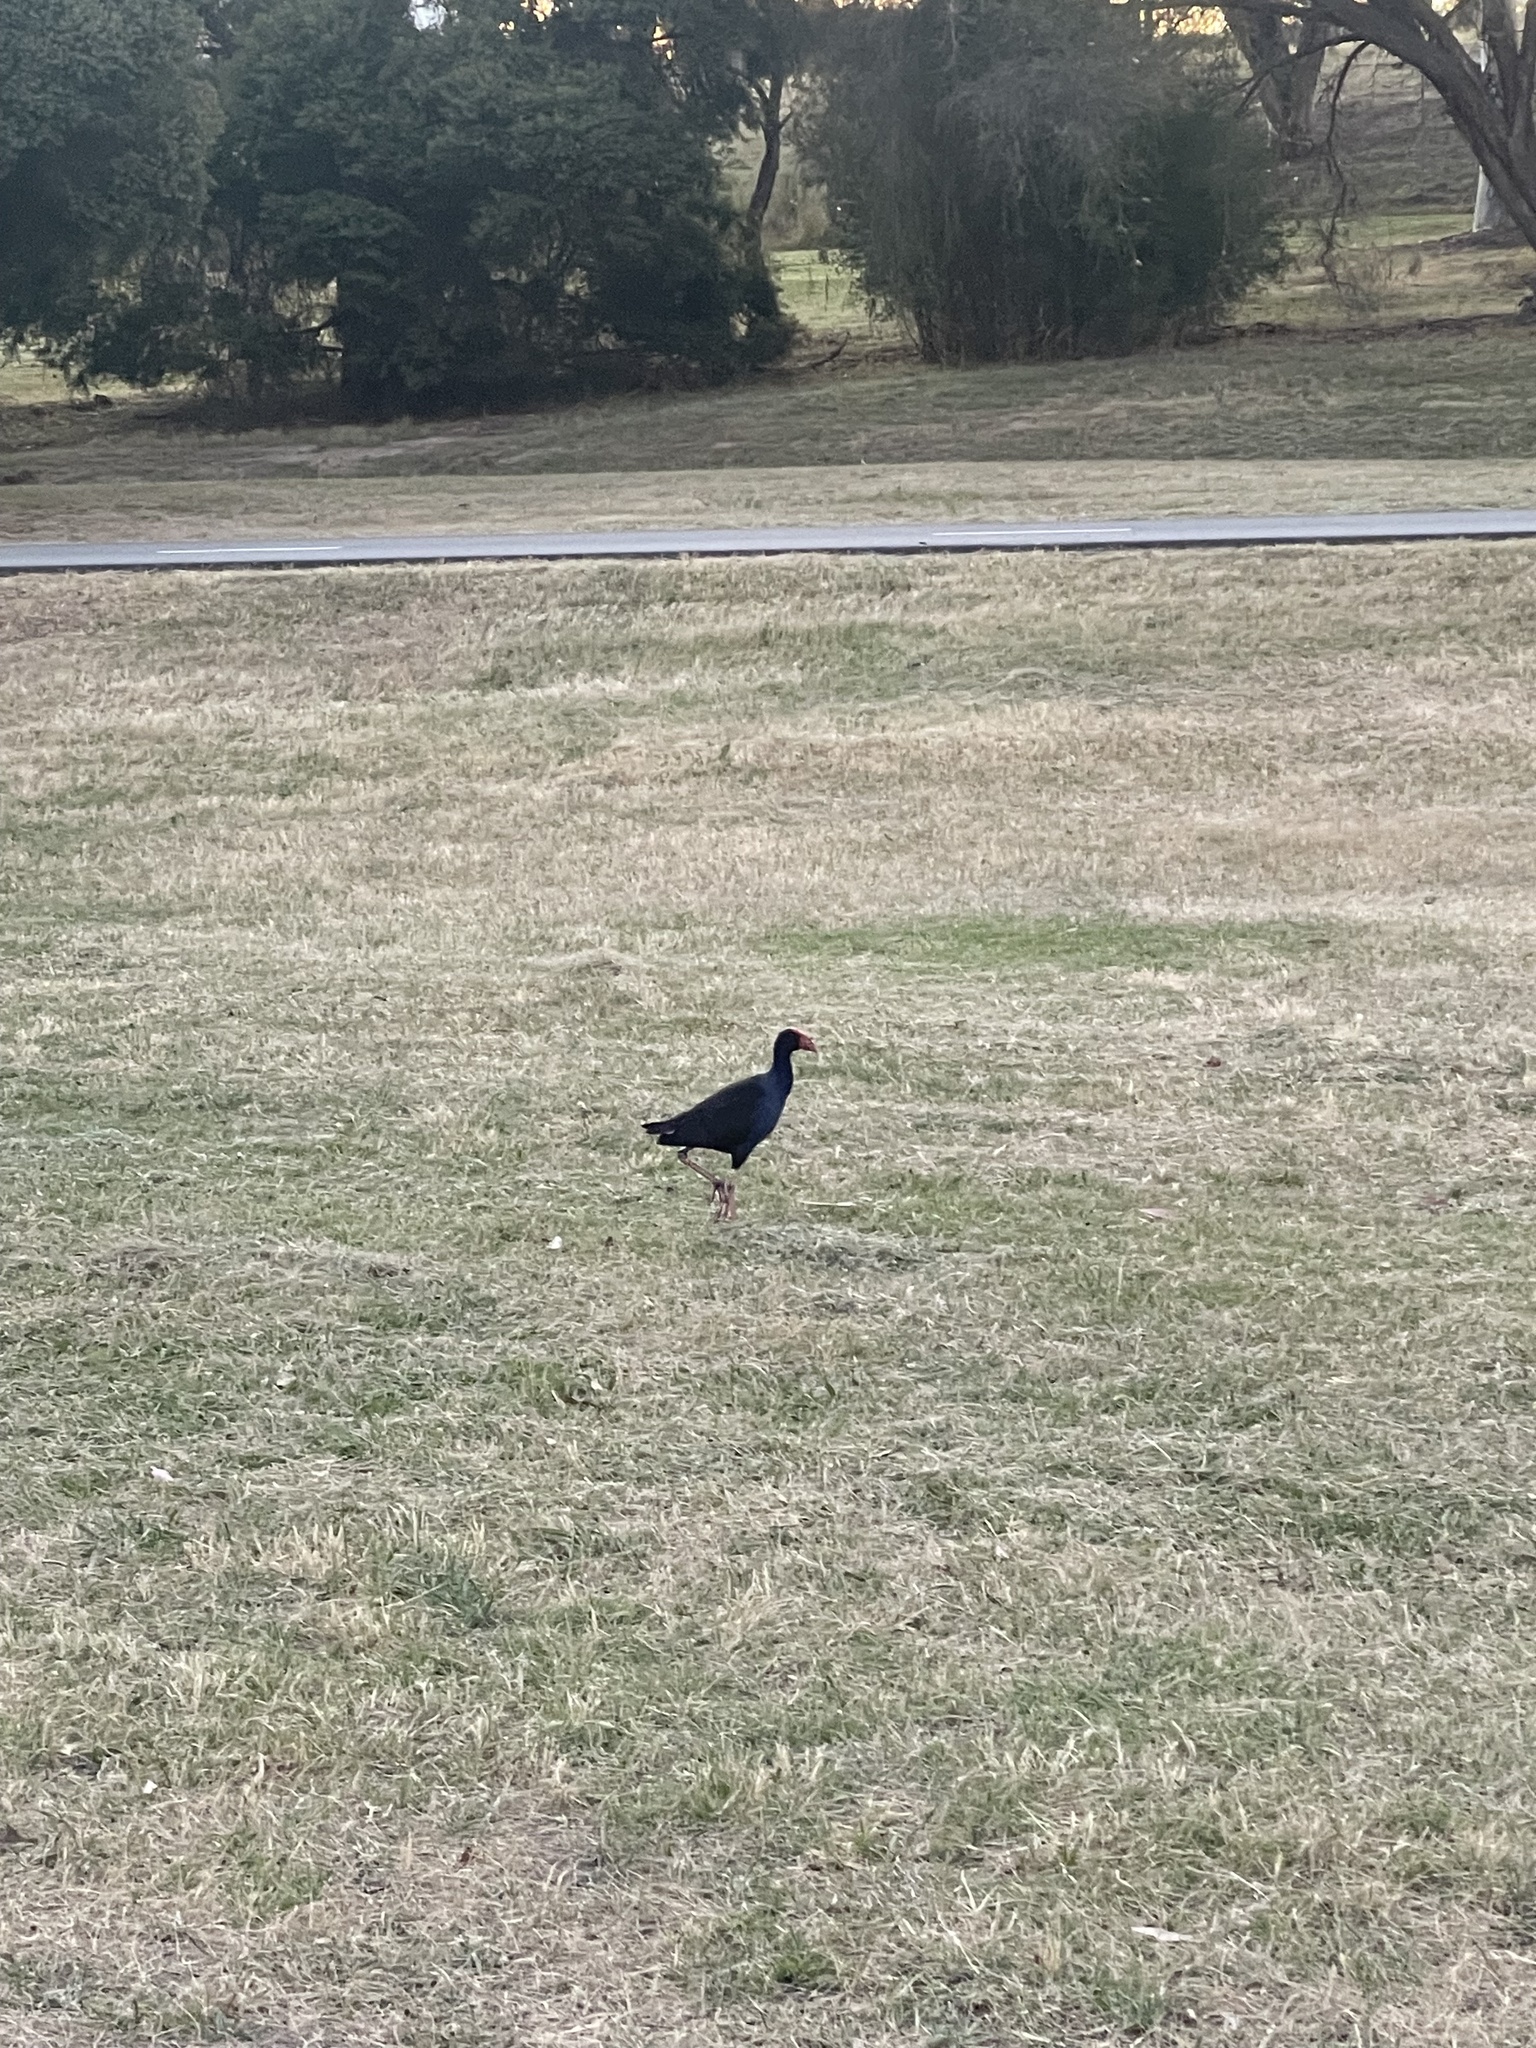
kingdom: Animalia
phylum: Chordata
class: Aves
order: Gruiformes
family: Rallidae
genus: Porphyrio
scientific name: Porphyrio melanotus
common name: Australasian swamphen
